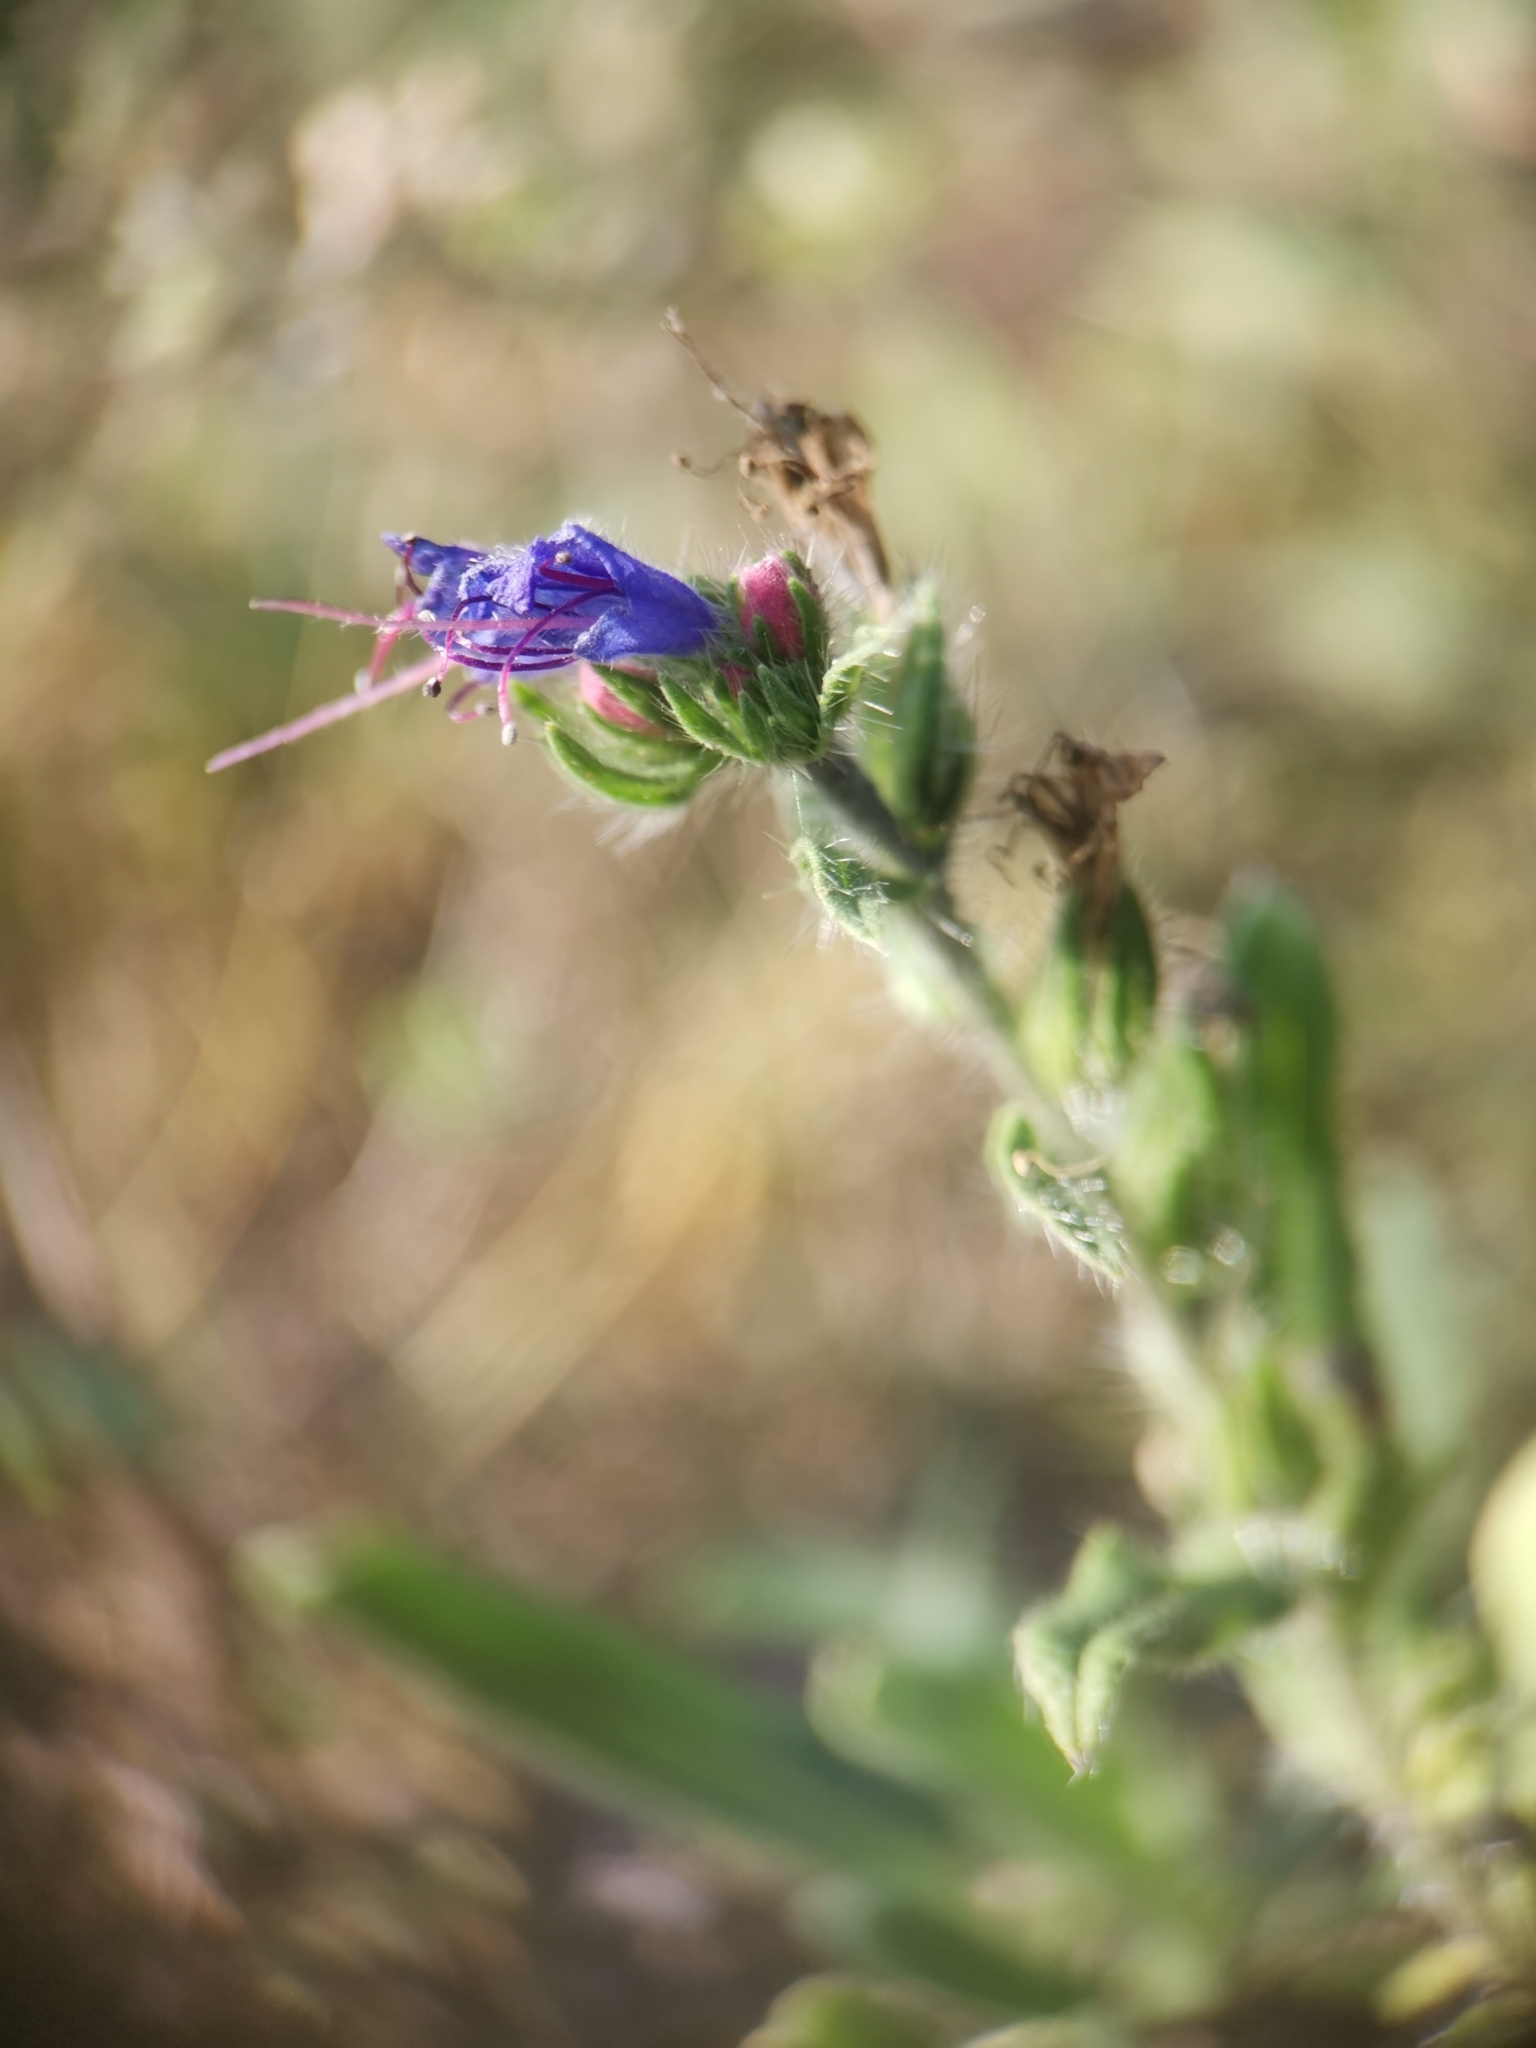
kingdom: Plantae
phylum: Tracheophyta
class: Magnoliopsida
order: Boraginales
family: Boraginaceae
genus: Echium
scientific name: Echium vulgare
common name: Common viper's bugloss
